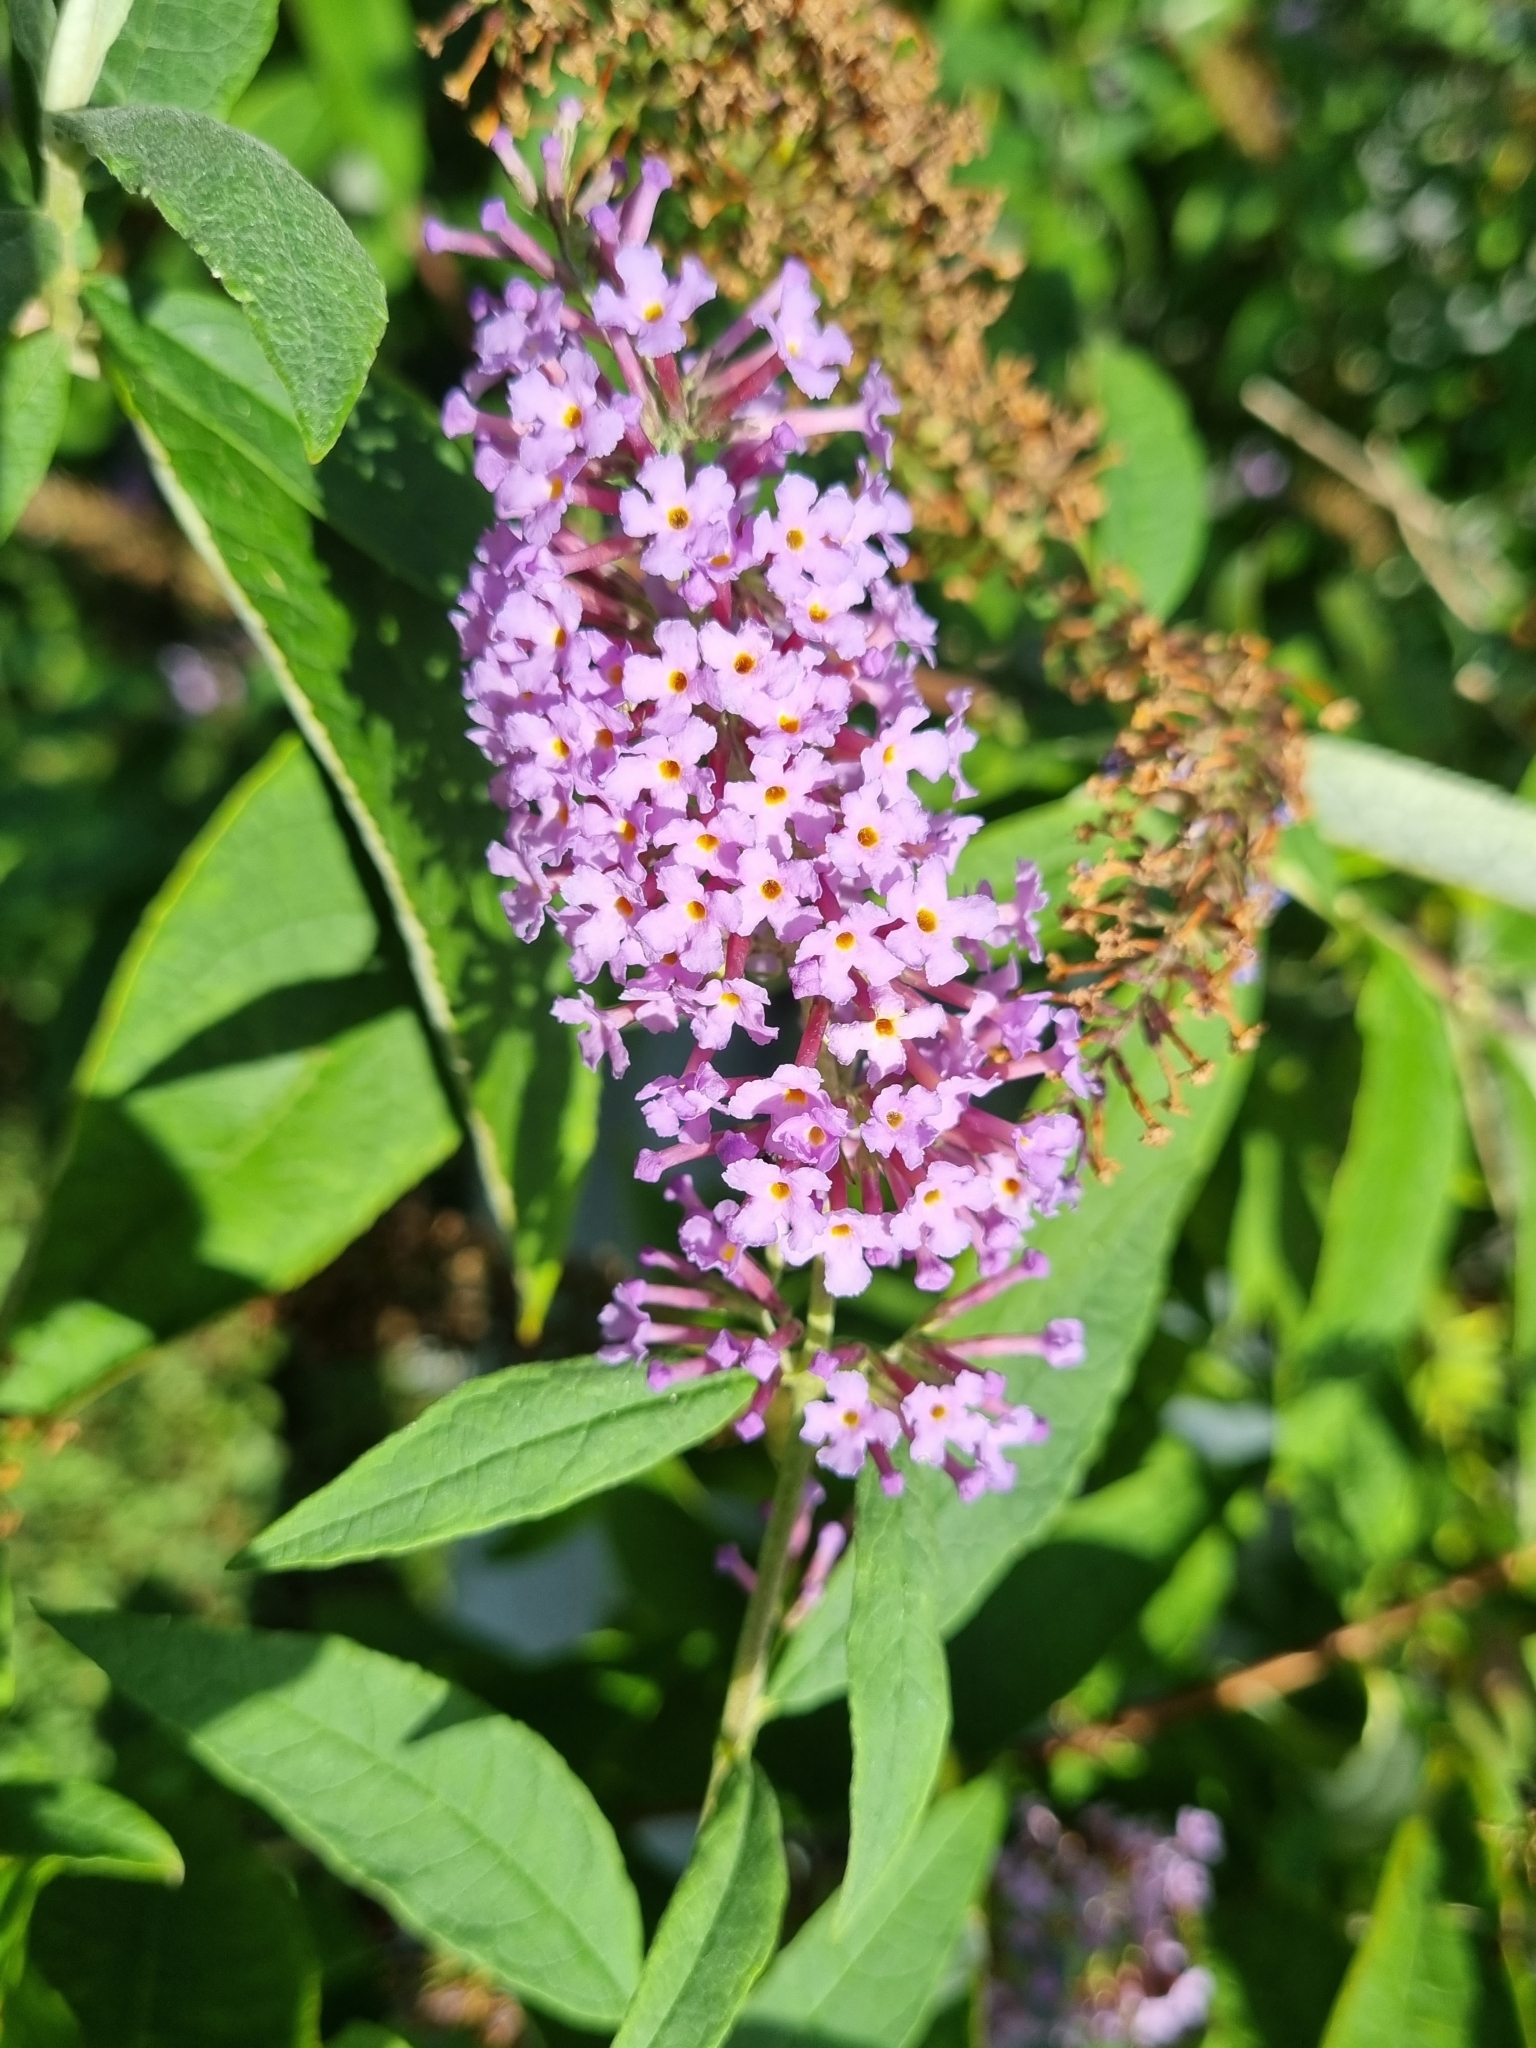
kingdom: Plantae
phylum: Tracheophyta
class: Magnoliopsida
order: Lamiales
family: Scrophulariaceae
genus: Buddleja
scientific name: Buddleja davidii
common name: Butterfly-bush
